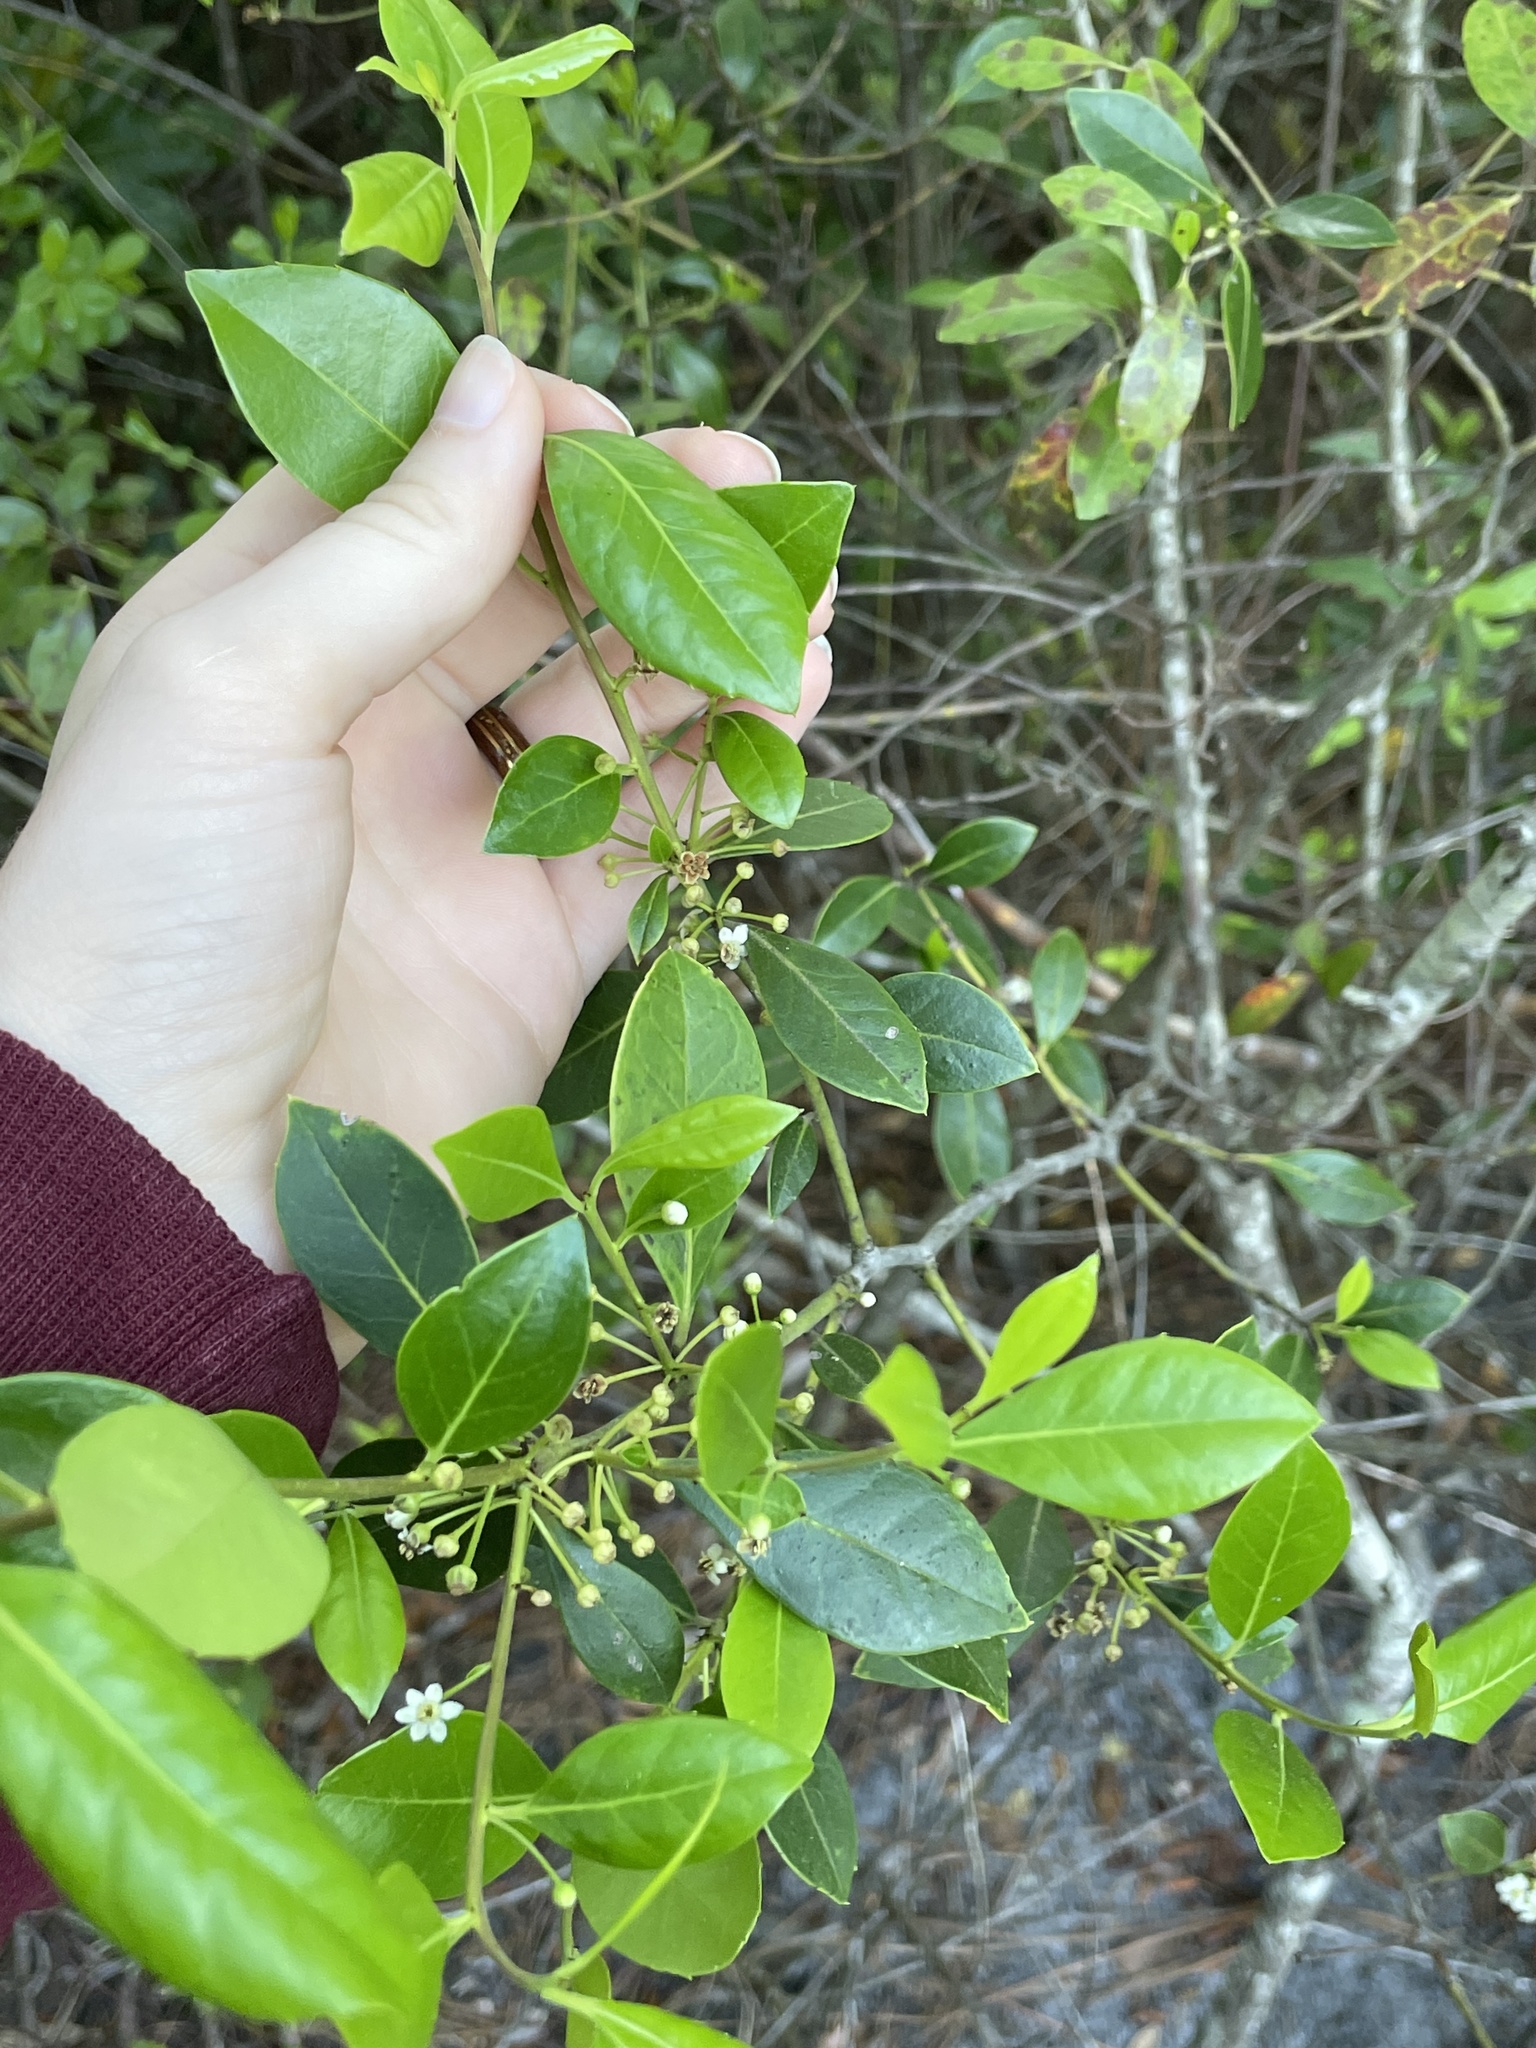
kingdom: Plantae
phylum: Tracheophyta
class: Magnoliopsida
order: Aquifoliales
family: Aquifoliaceae
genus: Ilex
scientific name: Ilex coriacea
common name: Sweet gallberry
